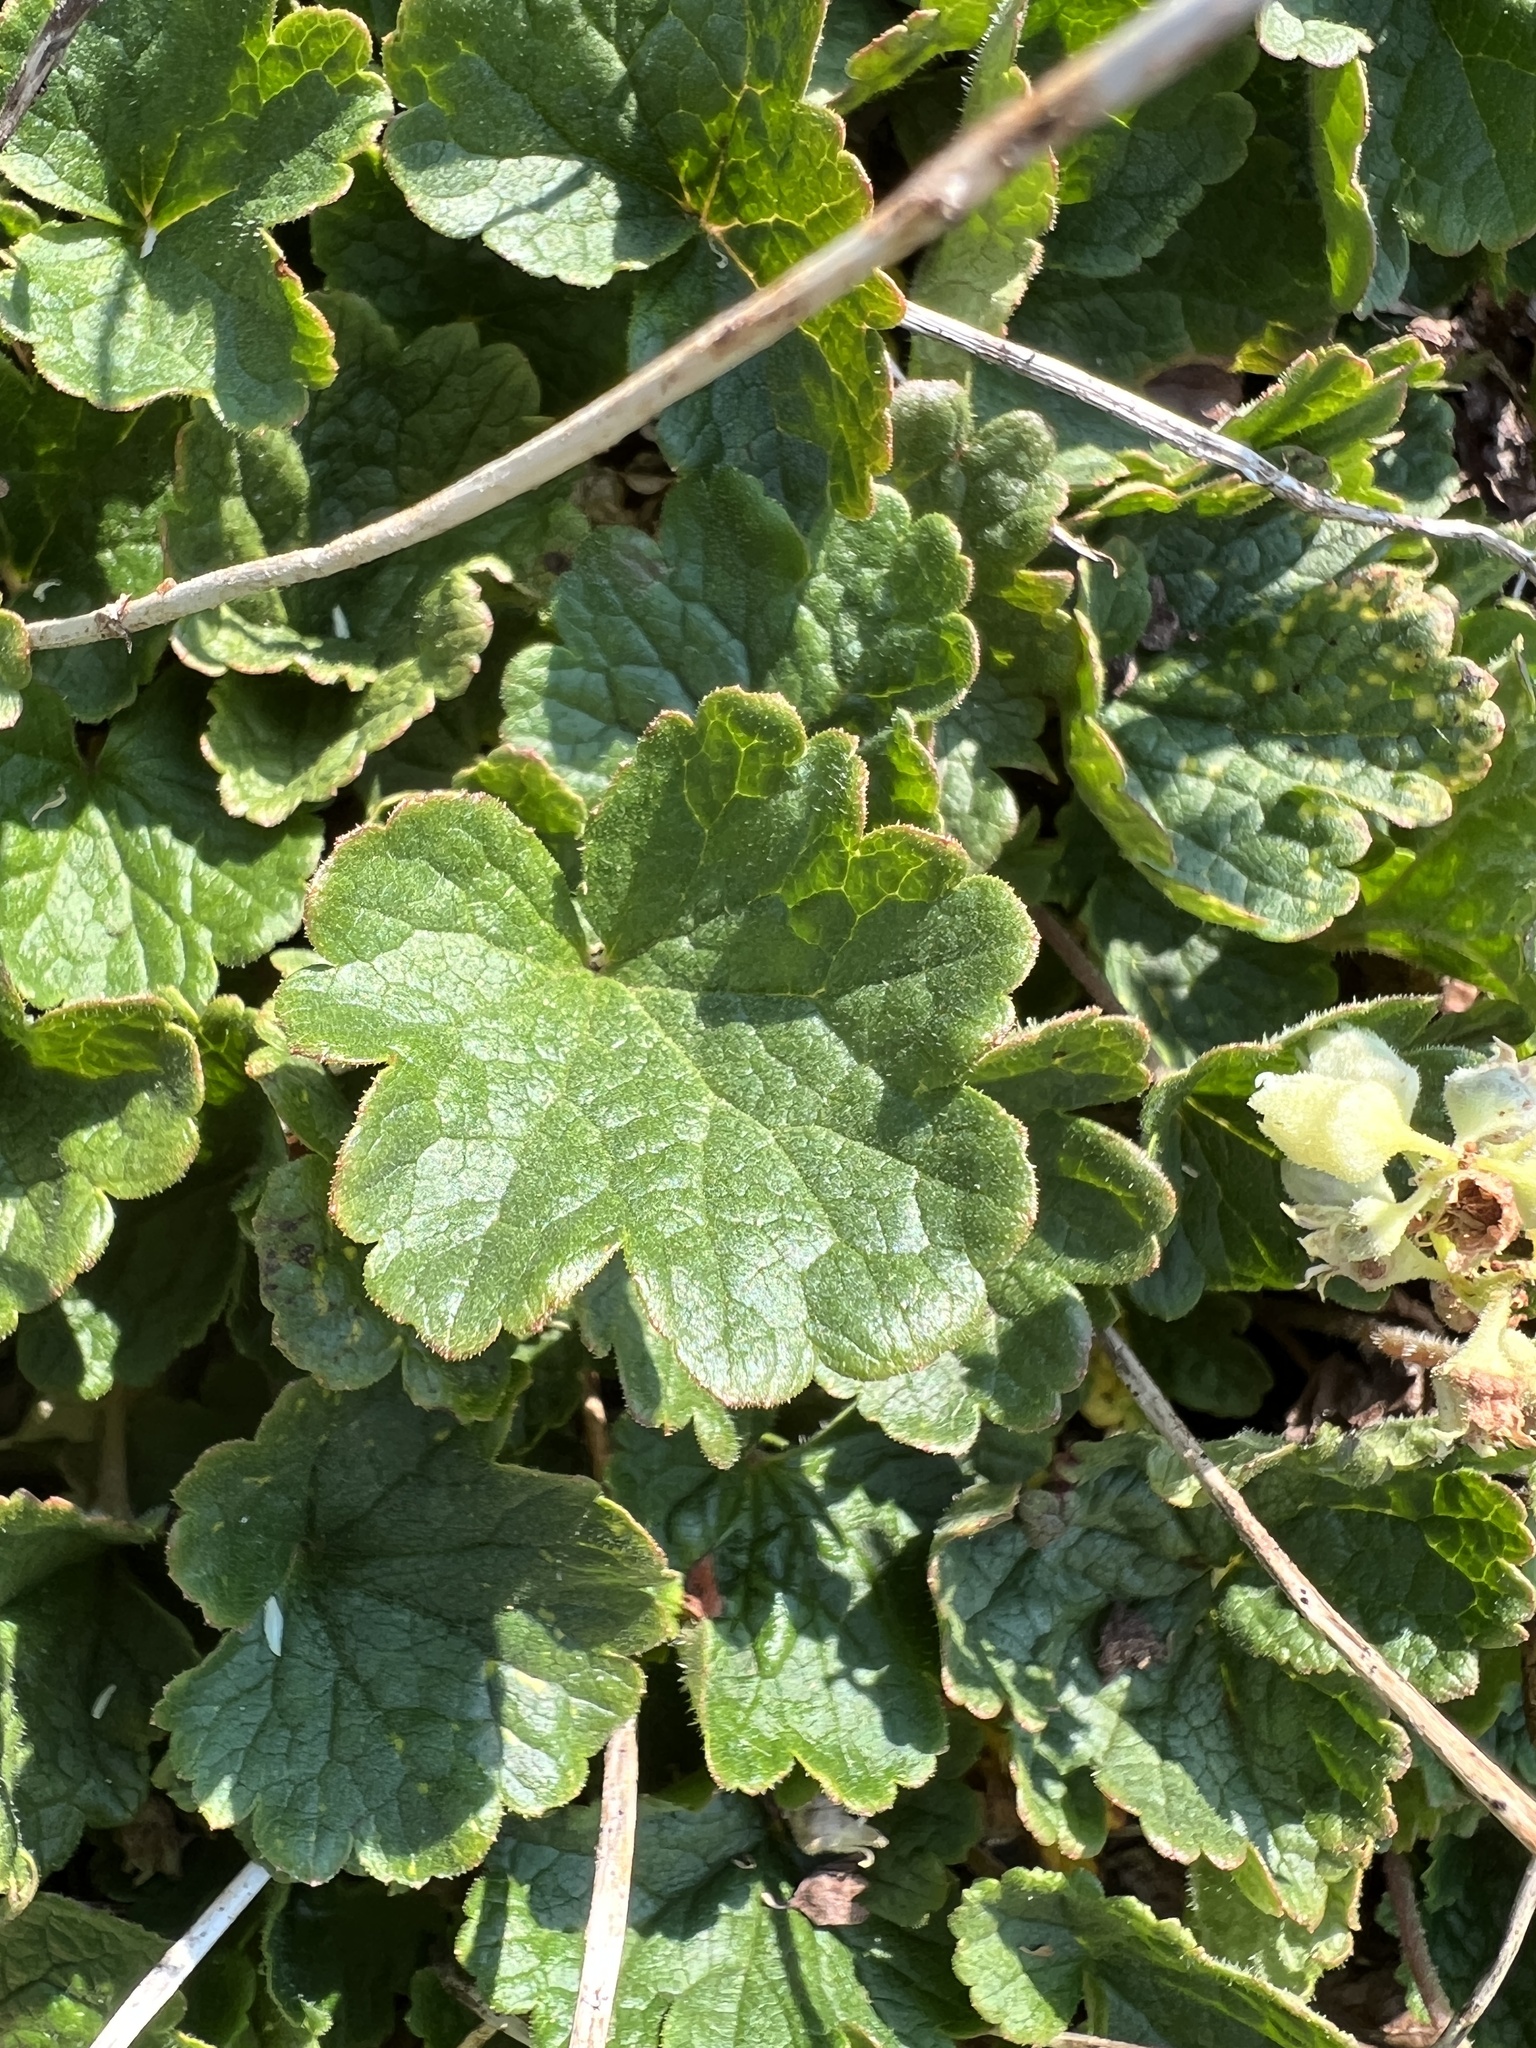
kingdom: Plantae
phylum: Tracheophyta
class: Magnoliopsida
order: Saxifragales
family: Saxifragaceae
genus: Elmera
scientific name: Elmera racemosa
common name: Elmera
